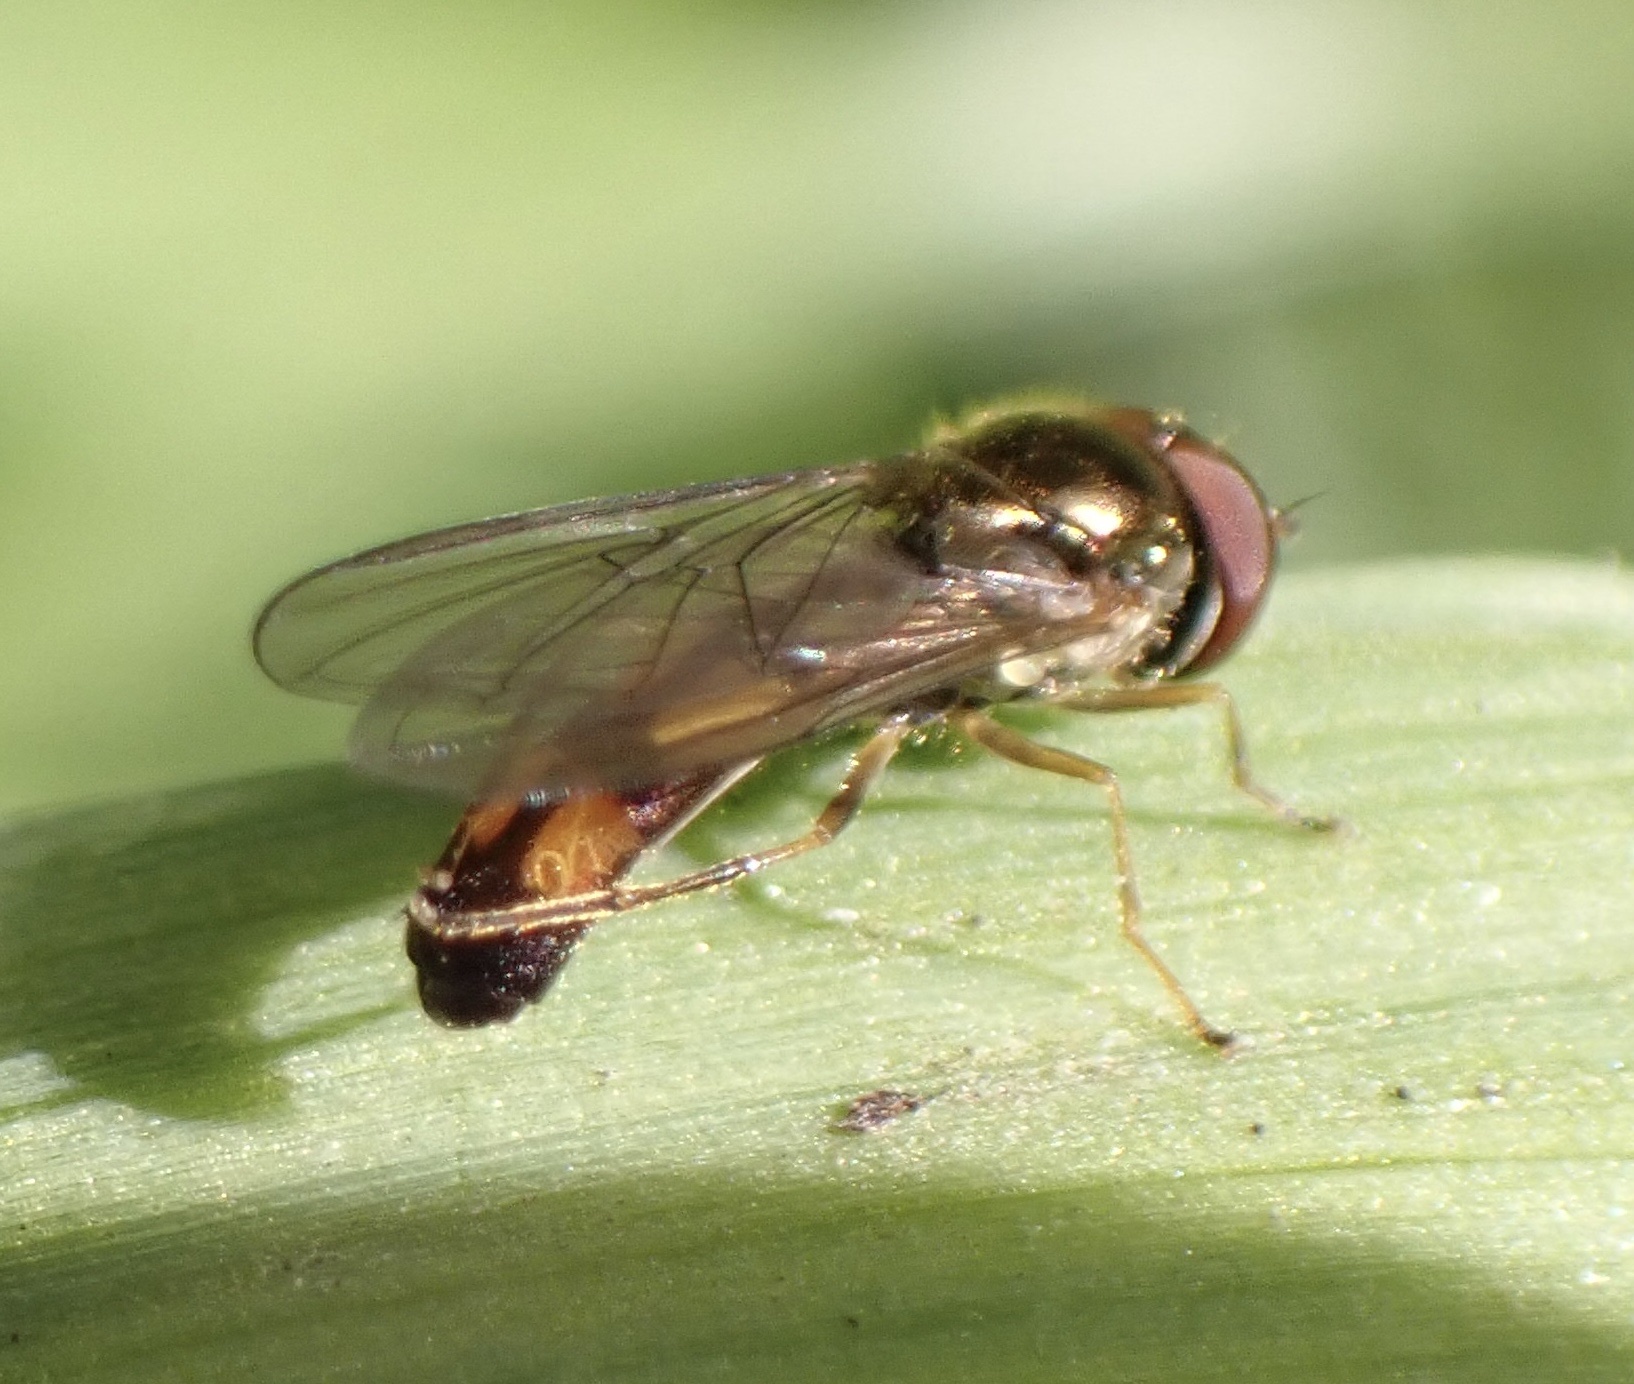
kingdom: Animalia
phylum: Arthropoda
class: Insecta
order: Diptera
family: Syrphidae
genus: Melanostoma
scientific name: Melanostoma scalare
